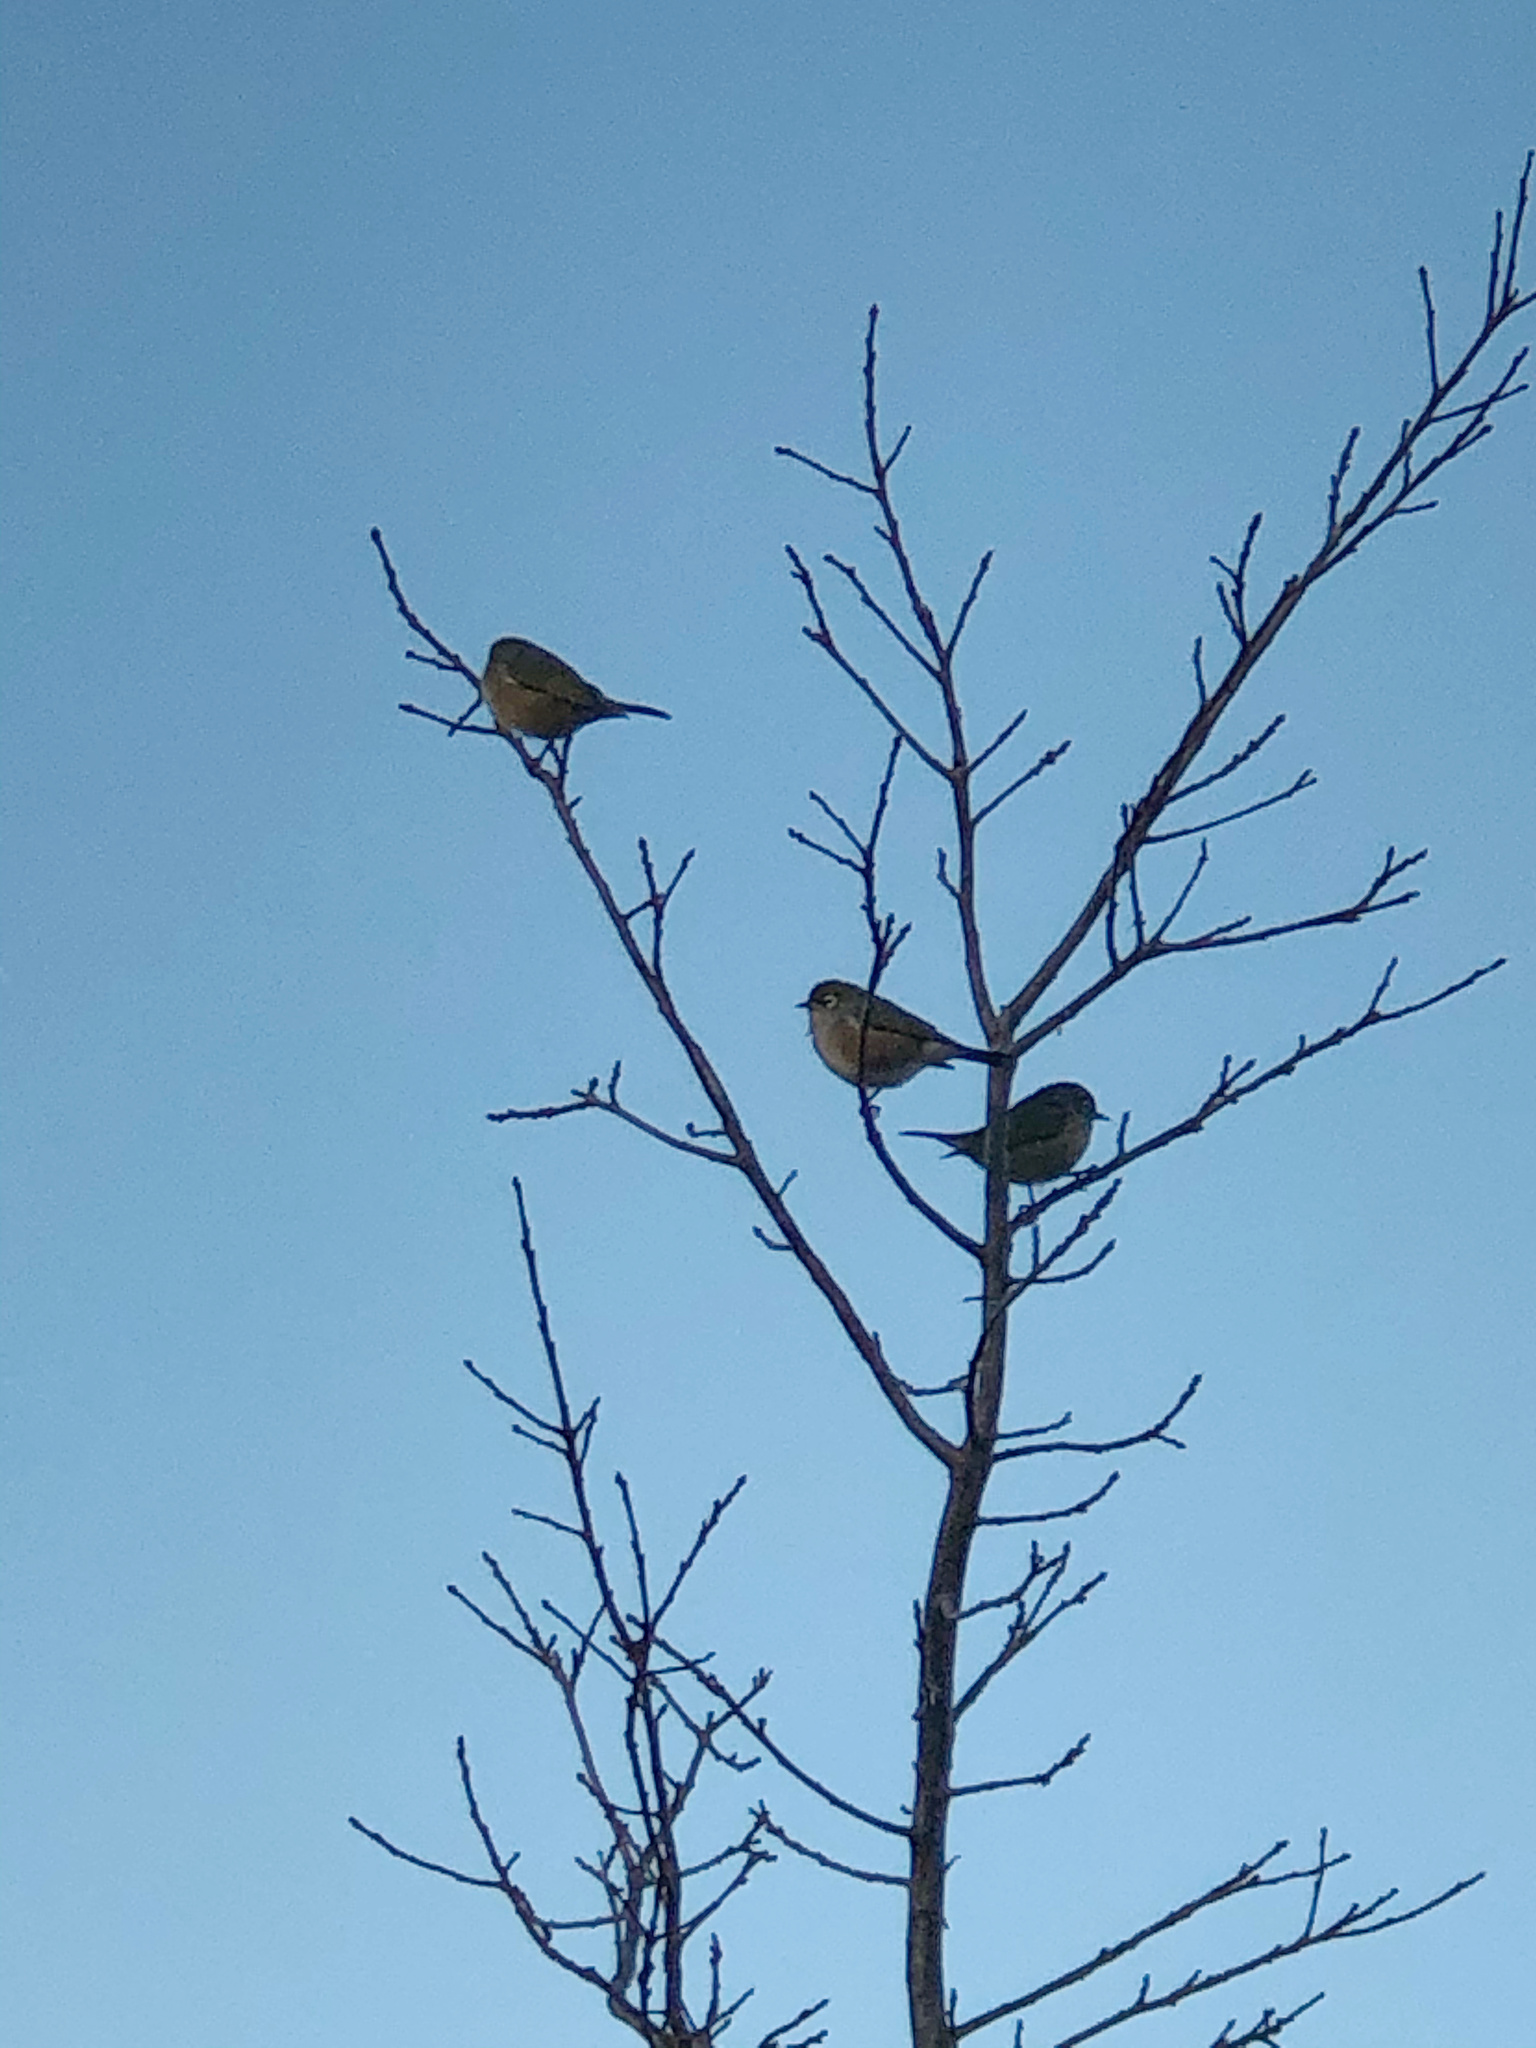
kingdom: Animalia
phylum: Chordata
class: Aves
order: Passeriformes
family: Zosteropidae
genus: Zosterops
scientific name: Zosterops lateralis
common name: Silvereye
